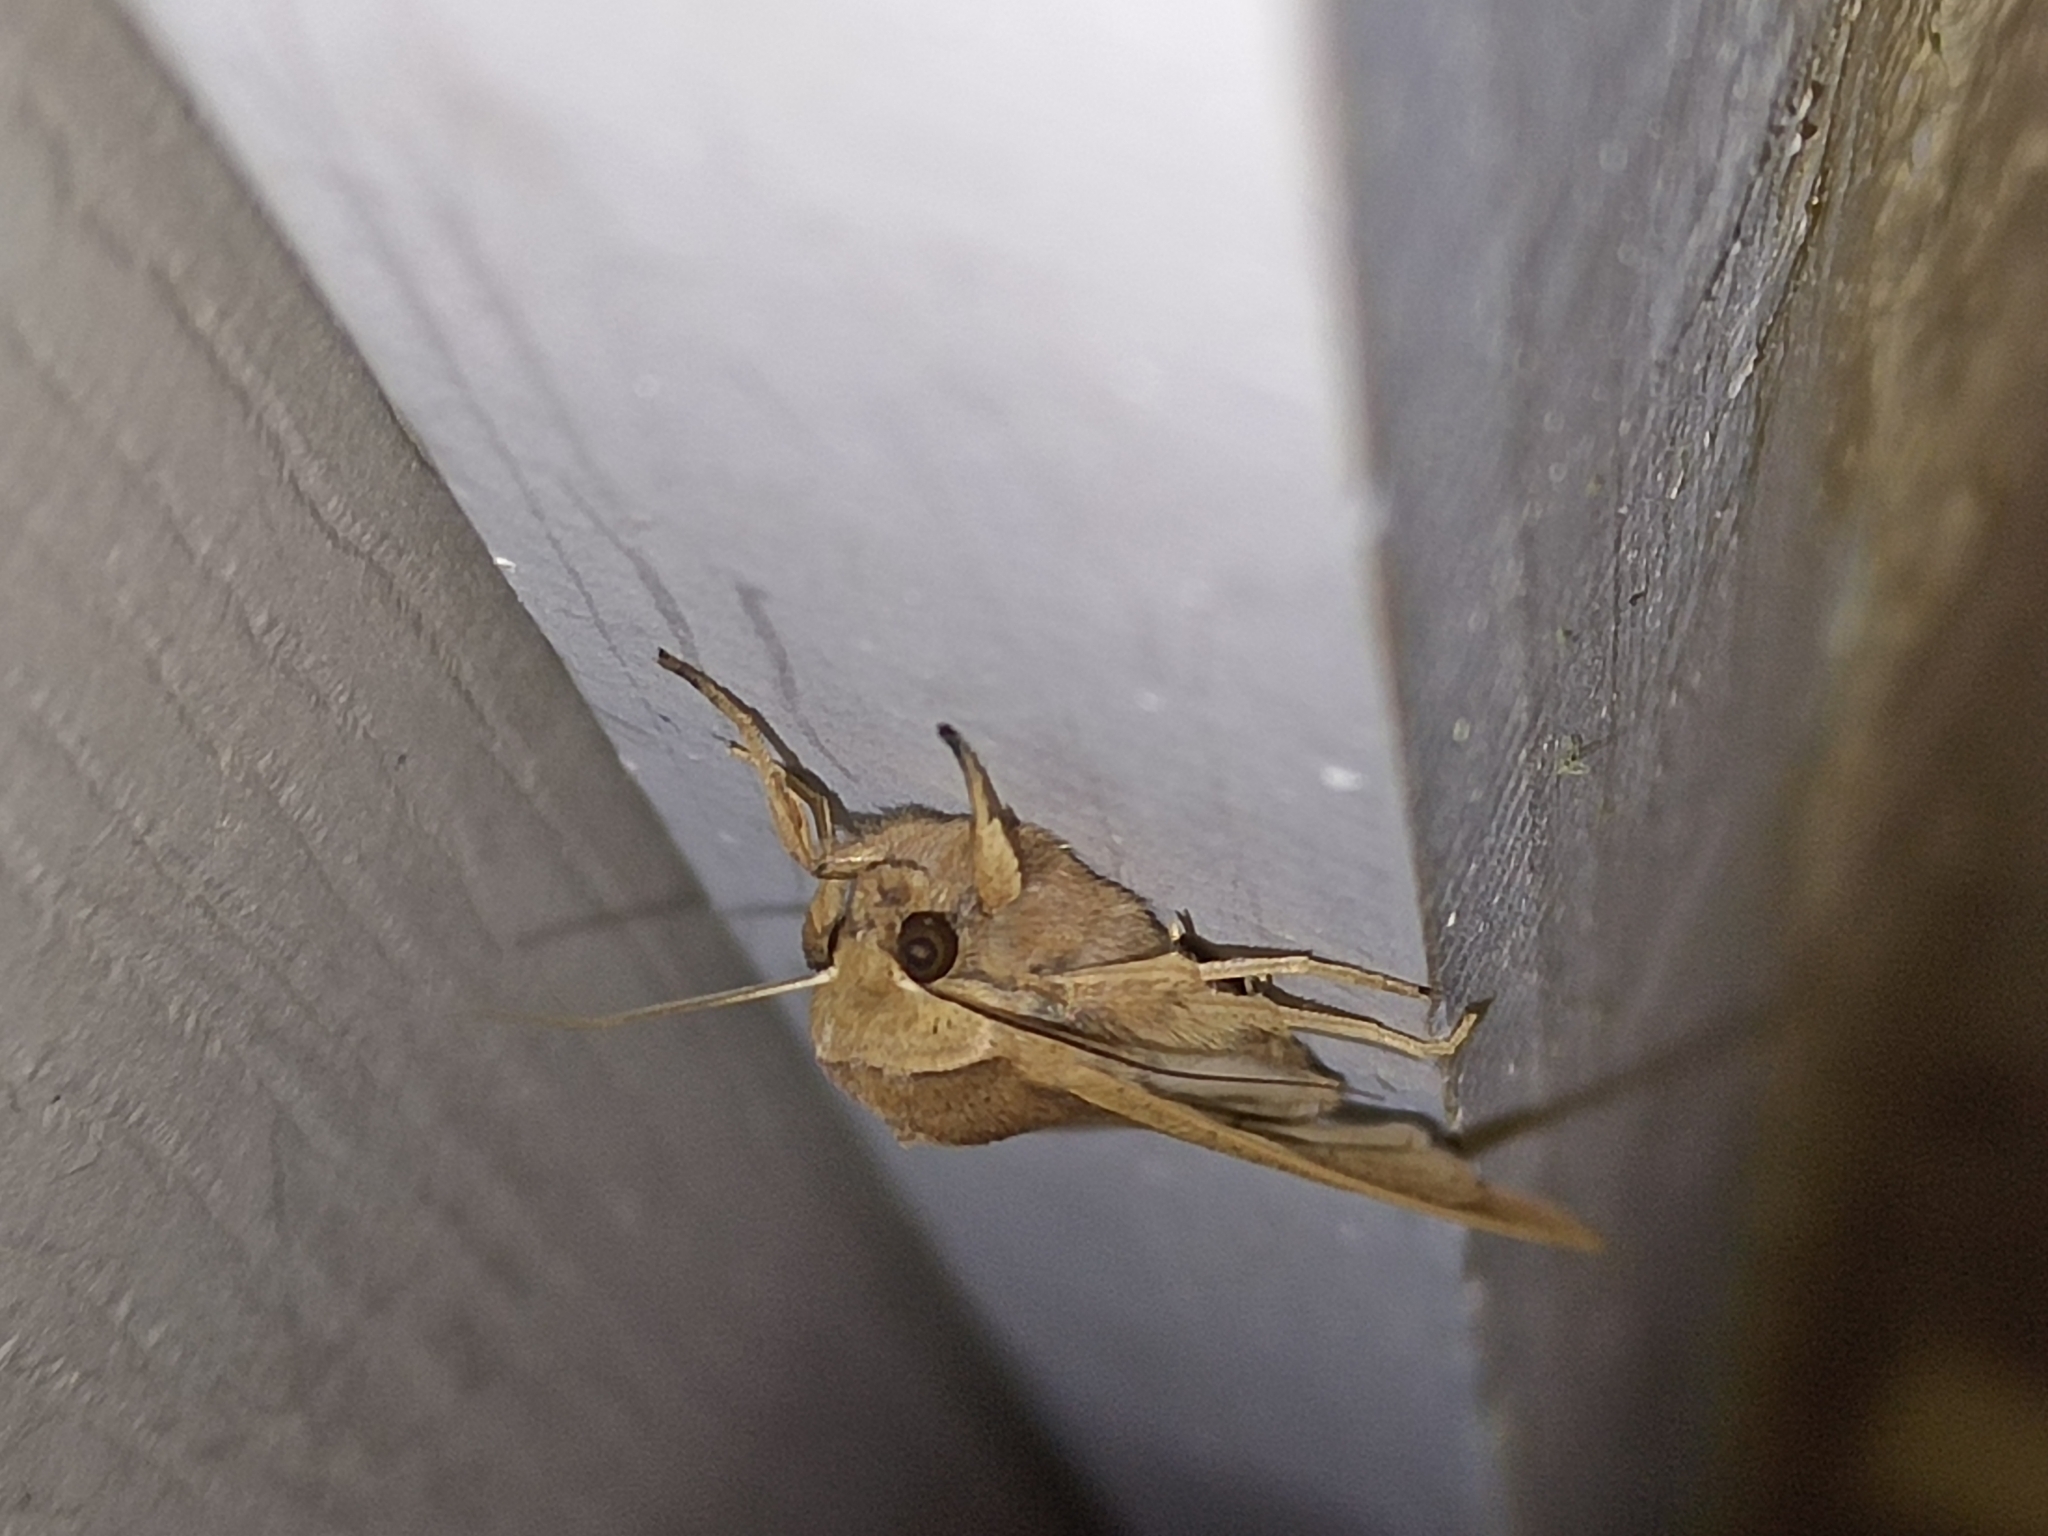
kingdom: Animalia
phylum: Arthropoda
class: Insecta
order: Lepidoptera
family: Noctuidae
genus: Mythimna
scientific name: Mythimna unipuncta
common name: White-speck
